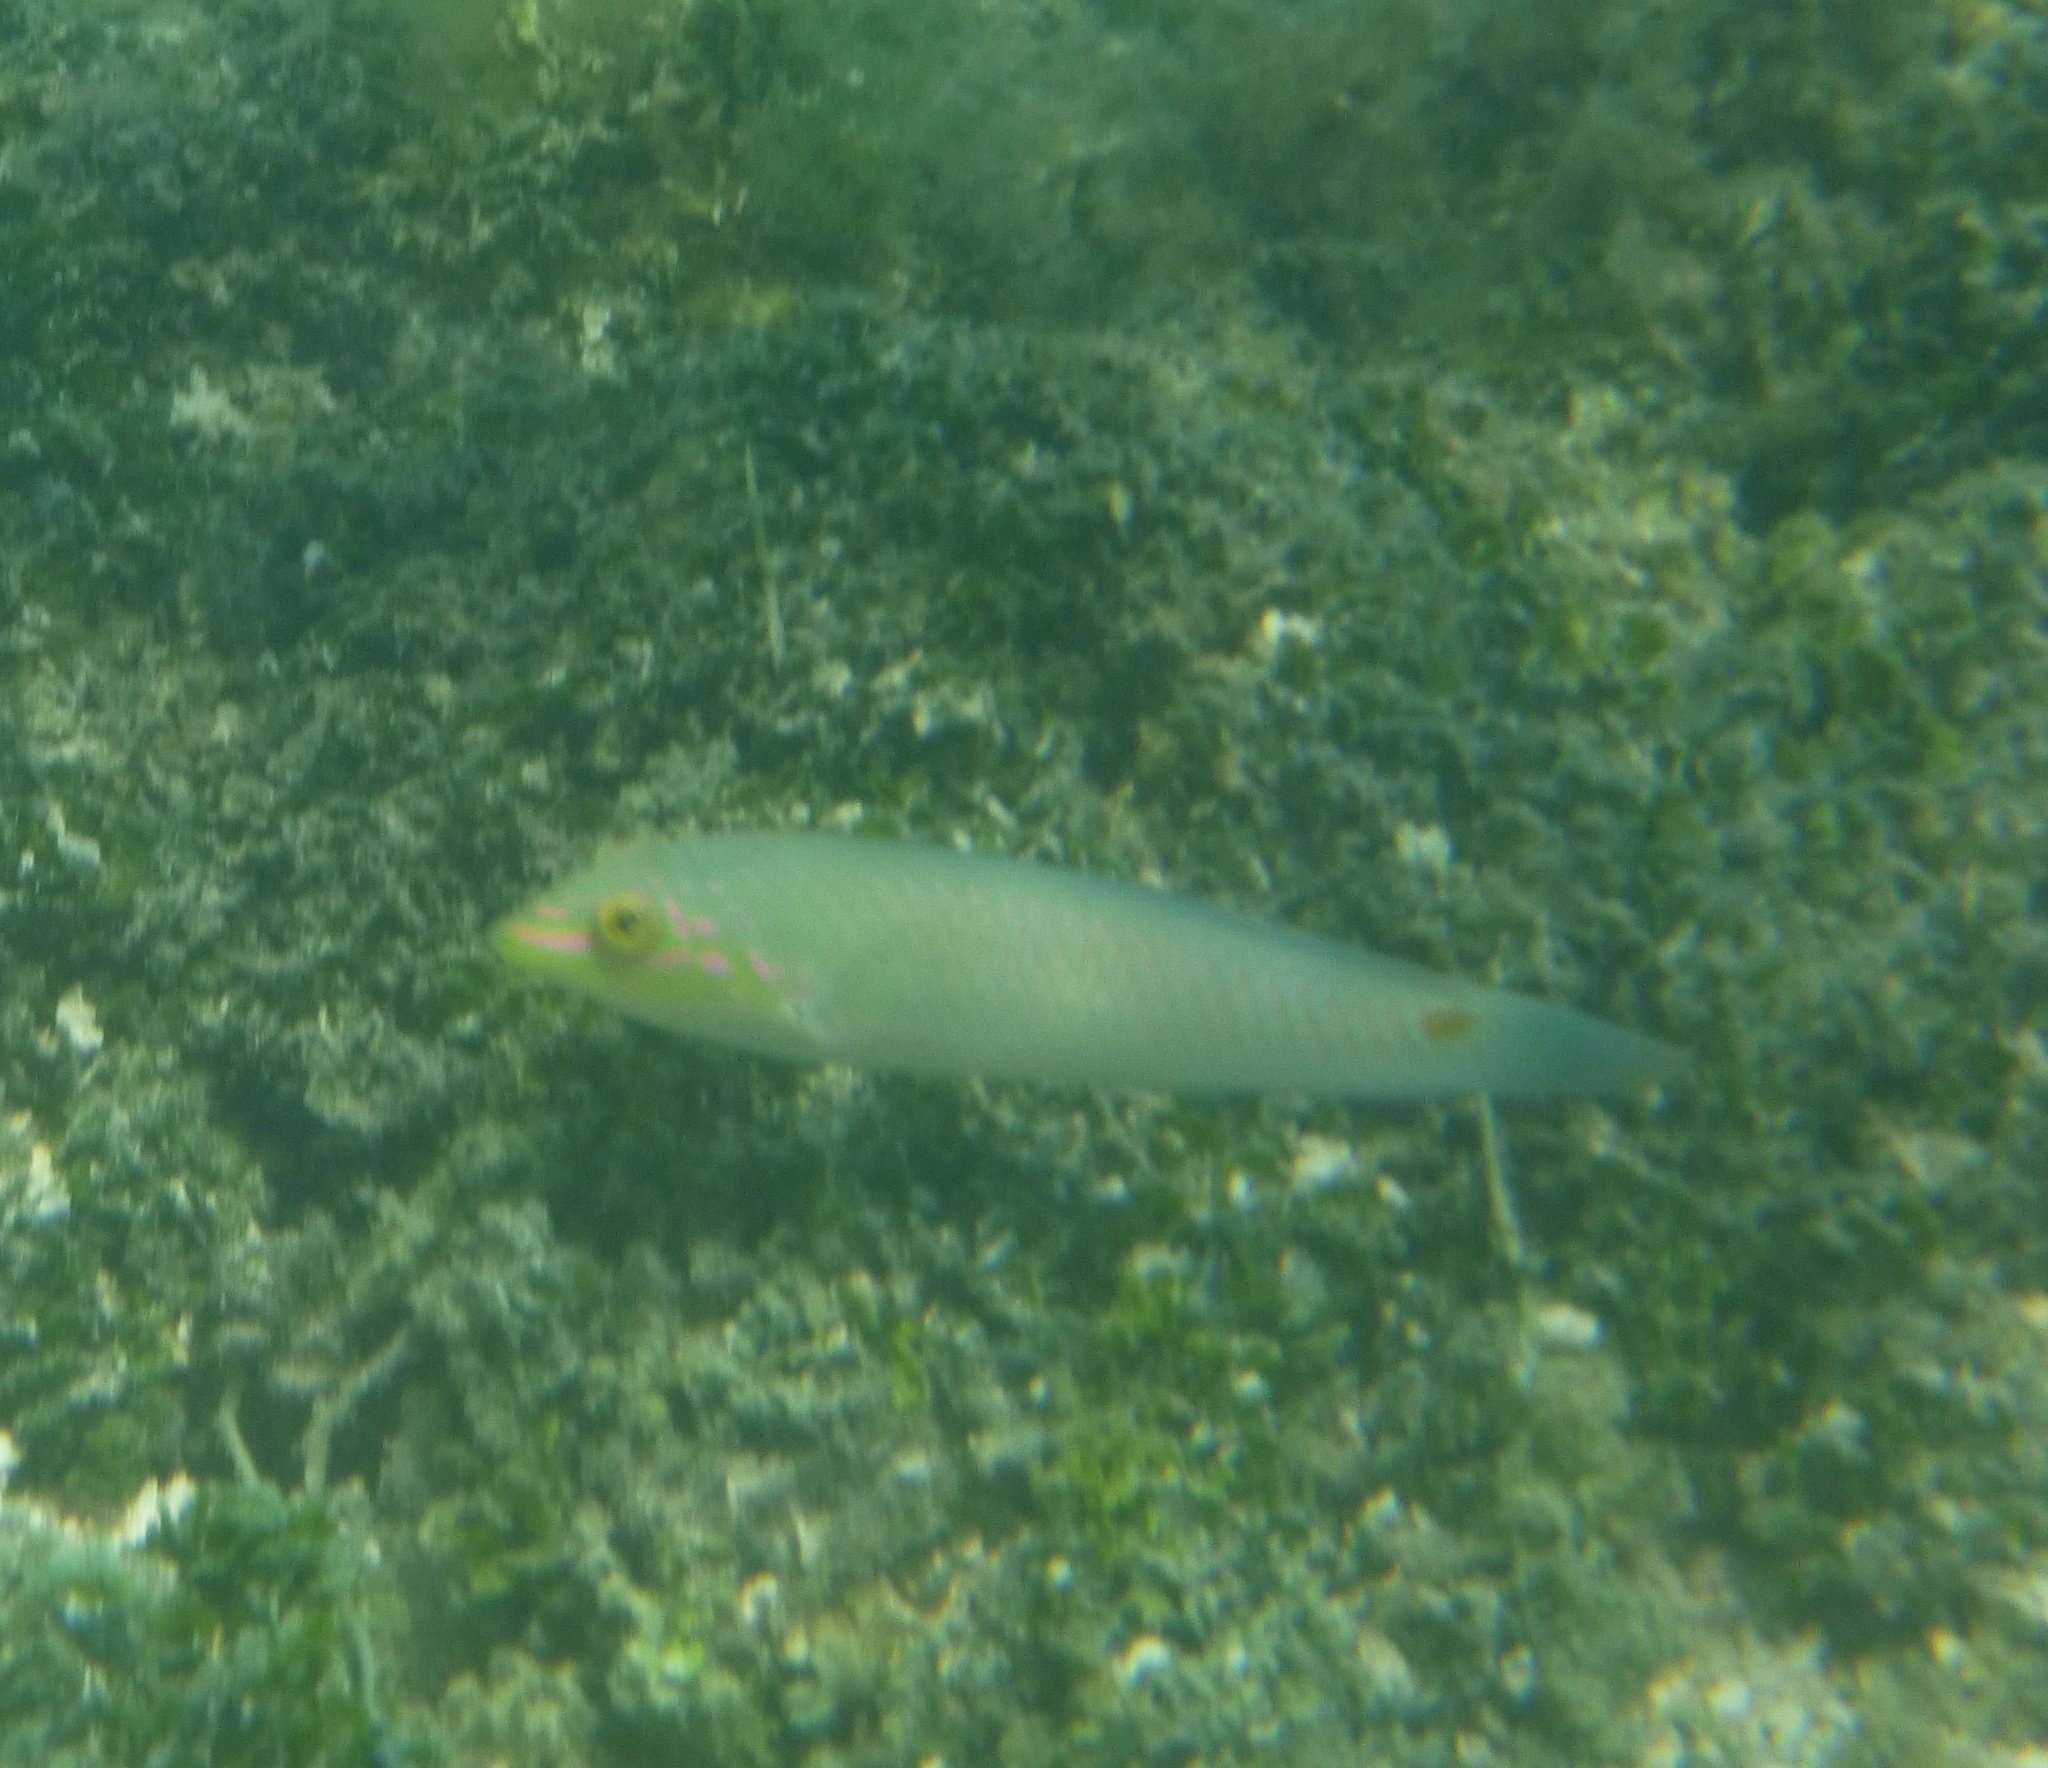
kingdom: Animalia
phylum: Chordata
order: Perciformes
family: Labridae
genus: Halichoeres
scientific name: Halichoeres trimaculatus
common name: Three-spot wrasse
